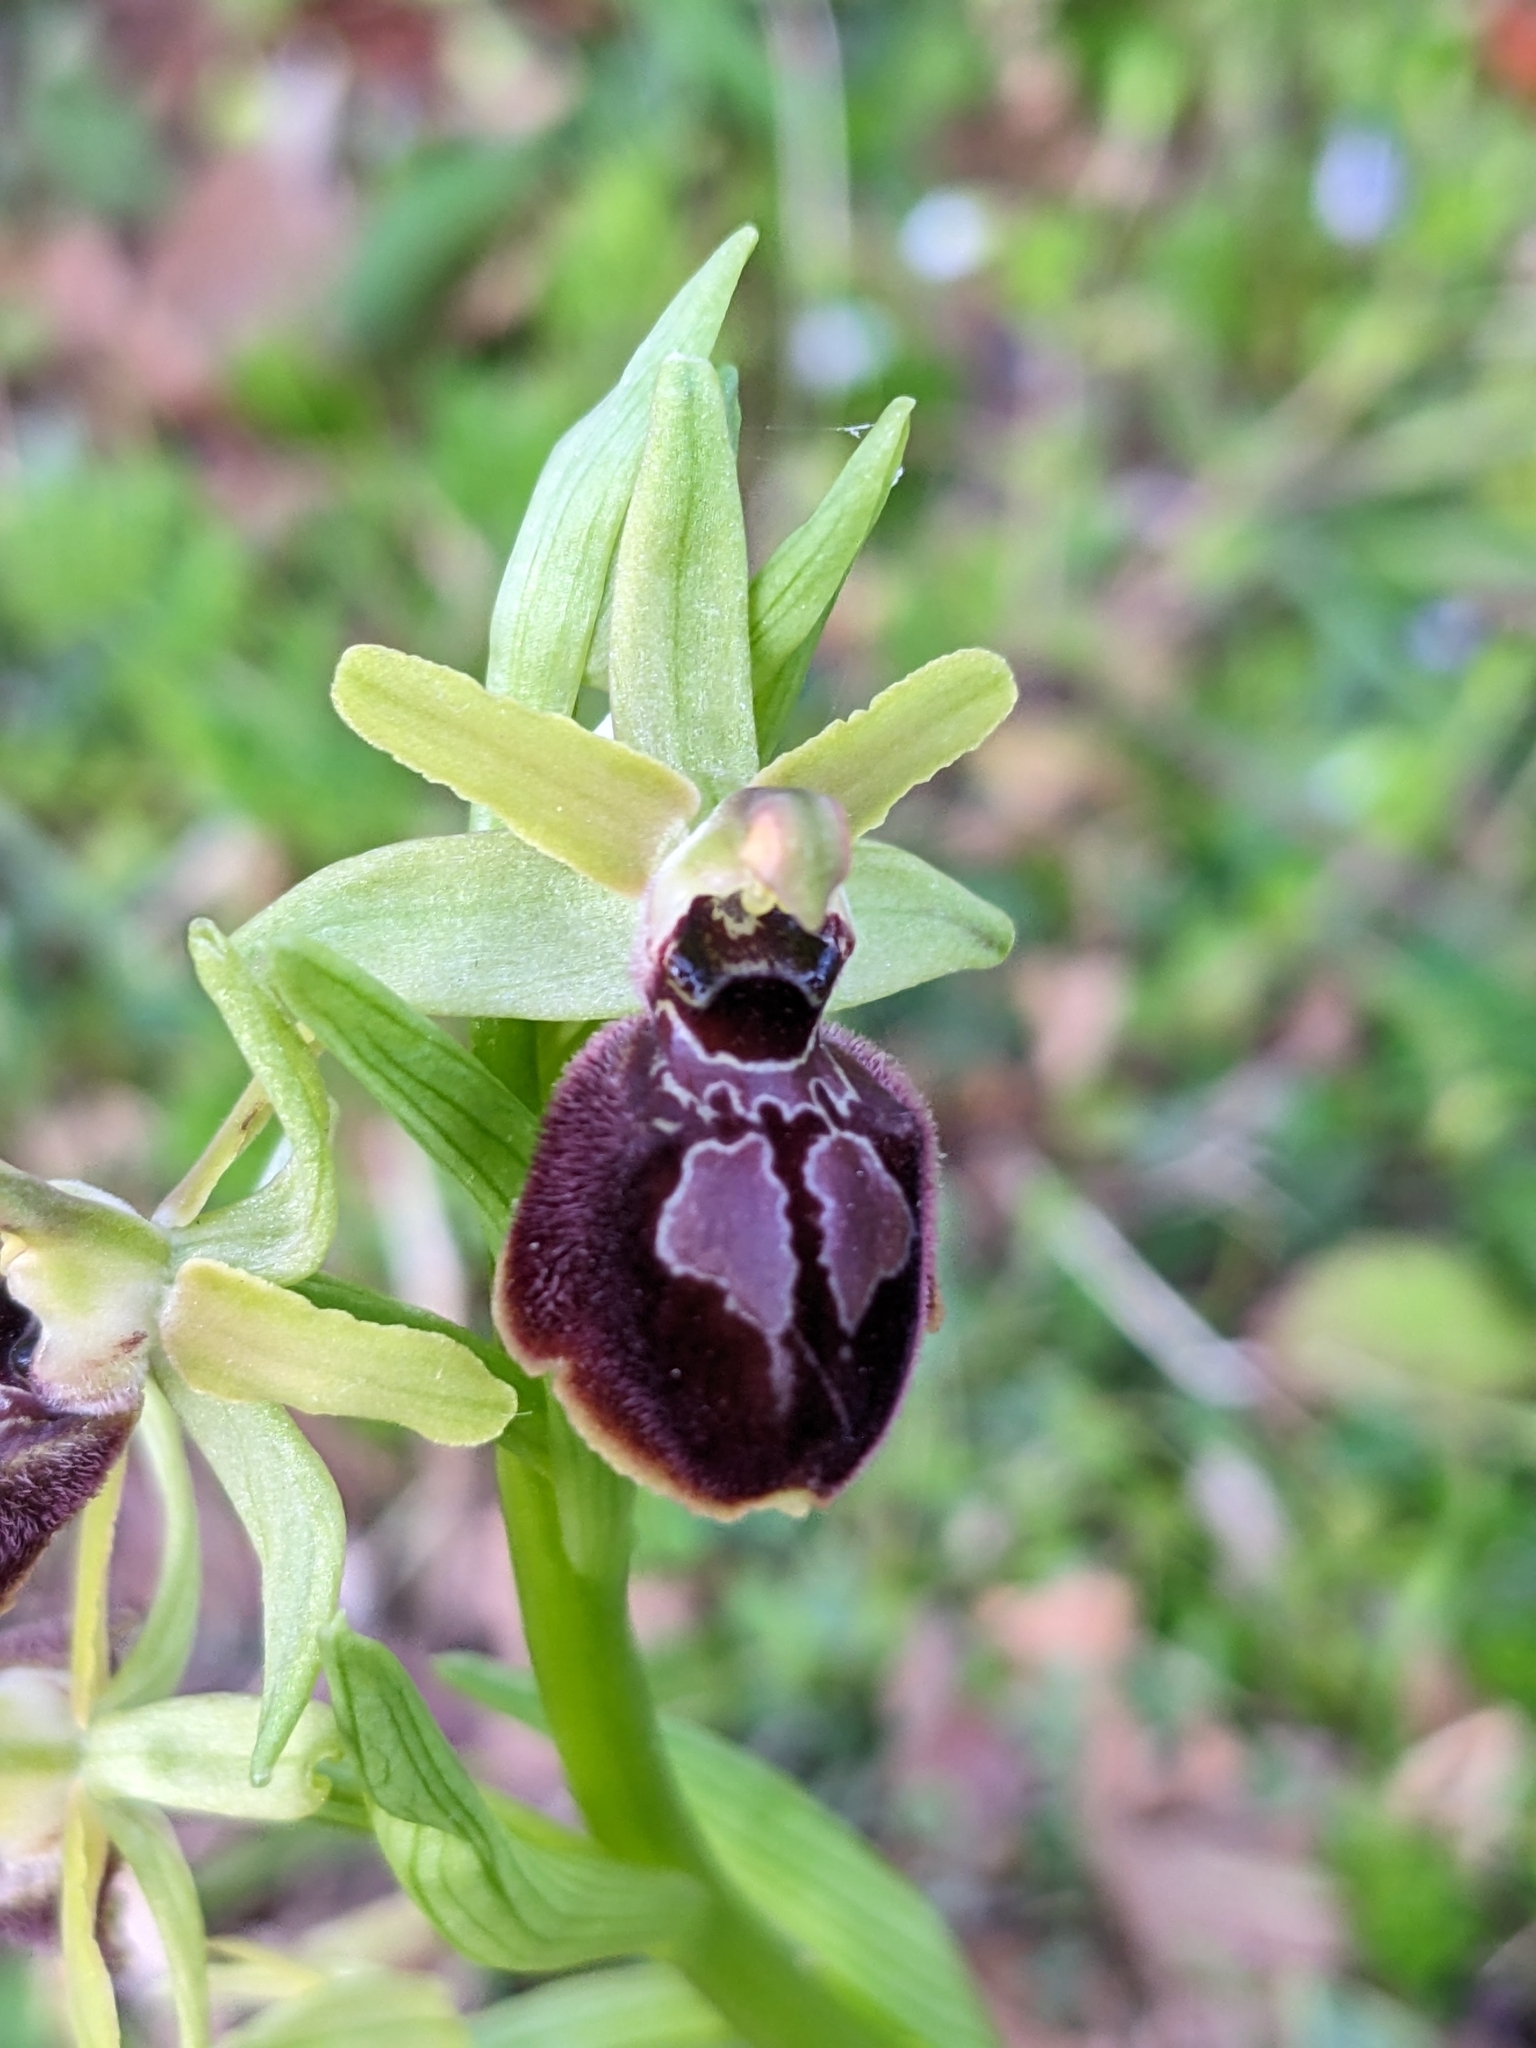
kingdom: Plantae
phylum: Tracheophyta
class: Liliopsida
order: Asparagales
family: Orchidaceae
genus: Ophrys
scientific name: Ophrys arachnitiformis
